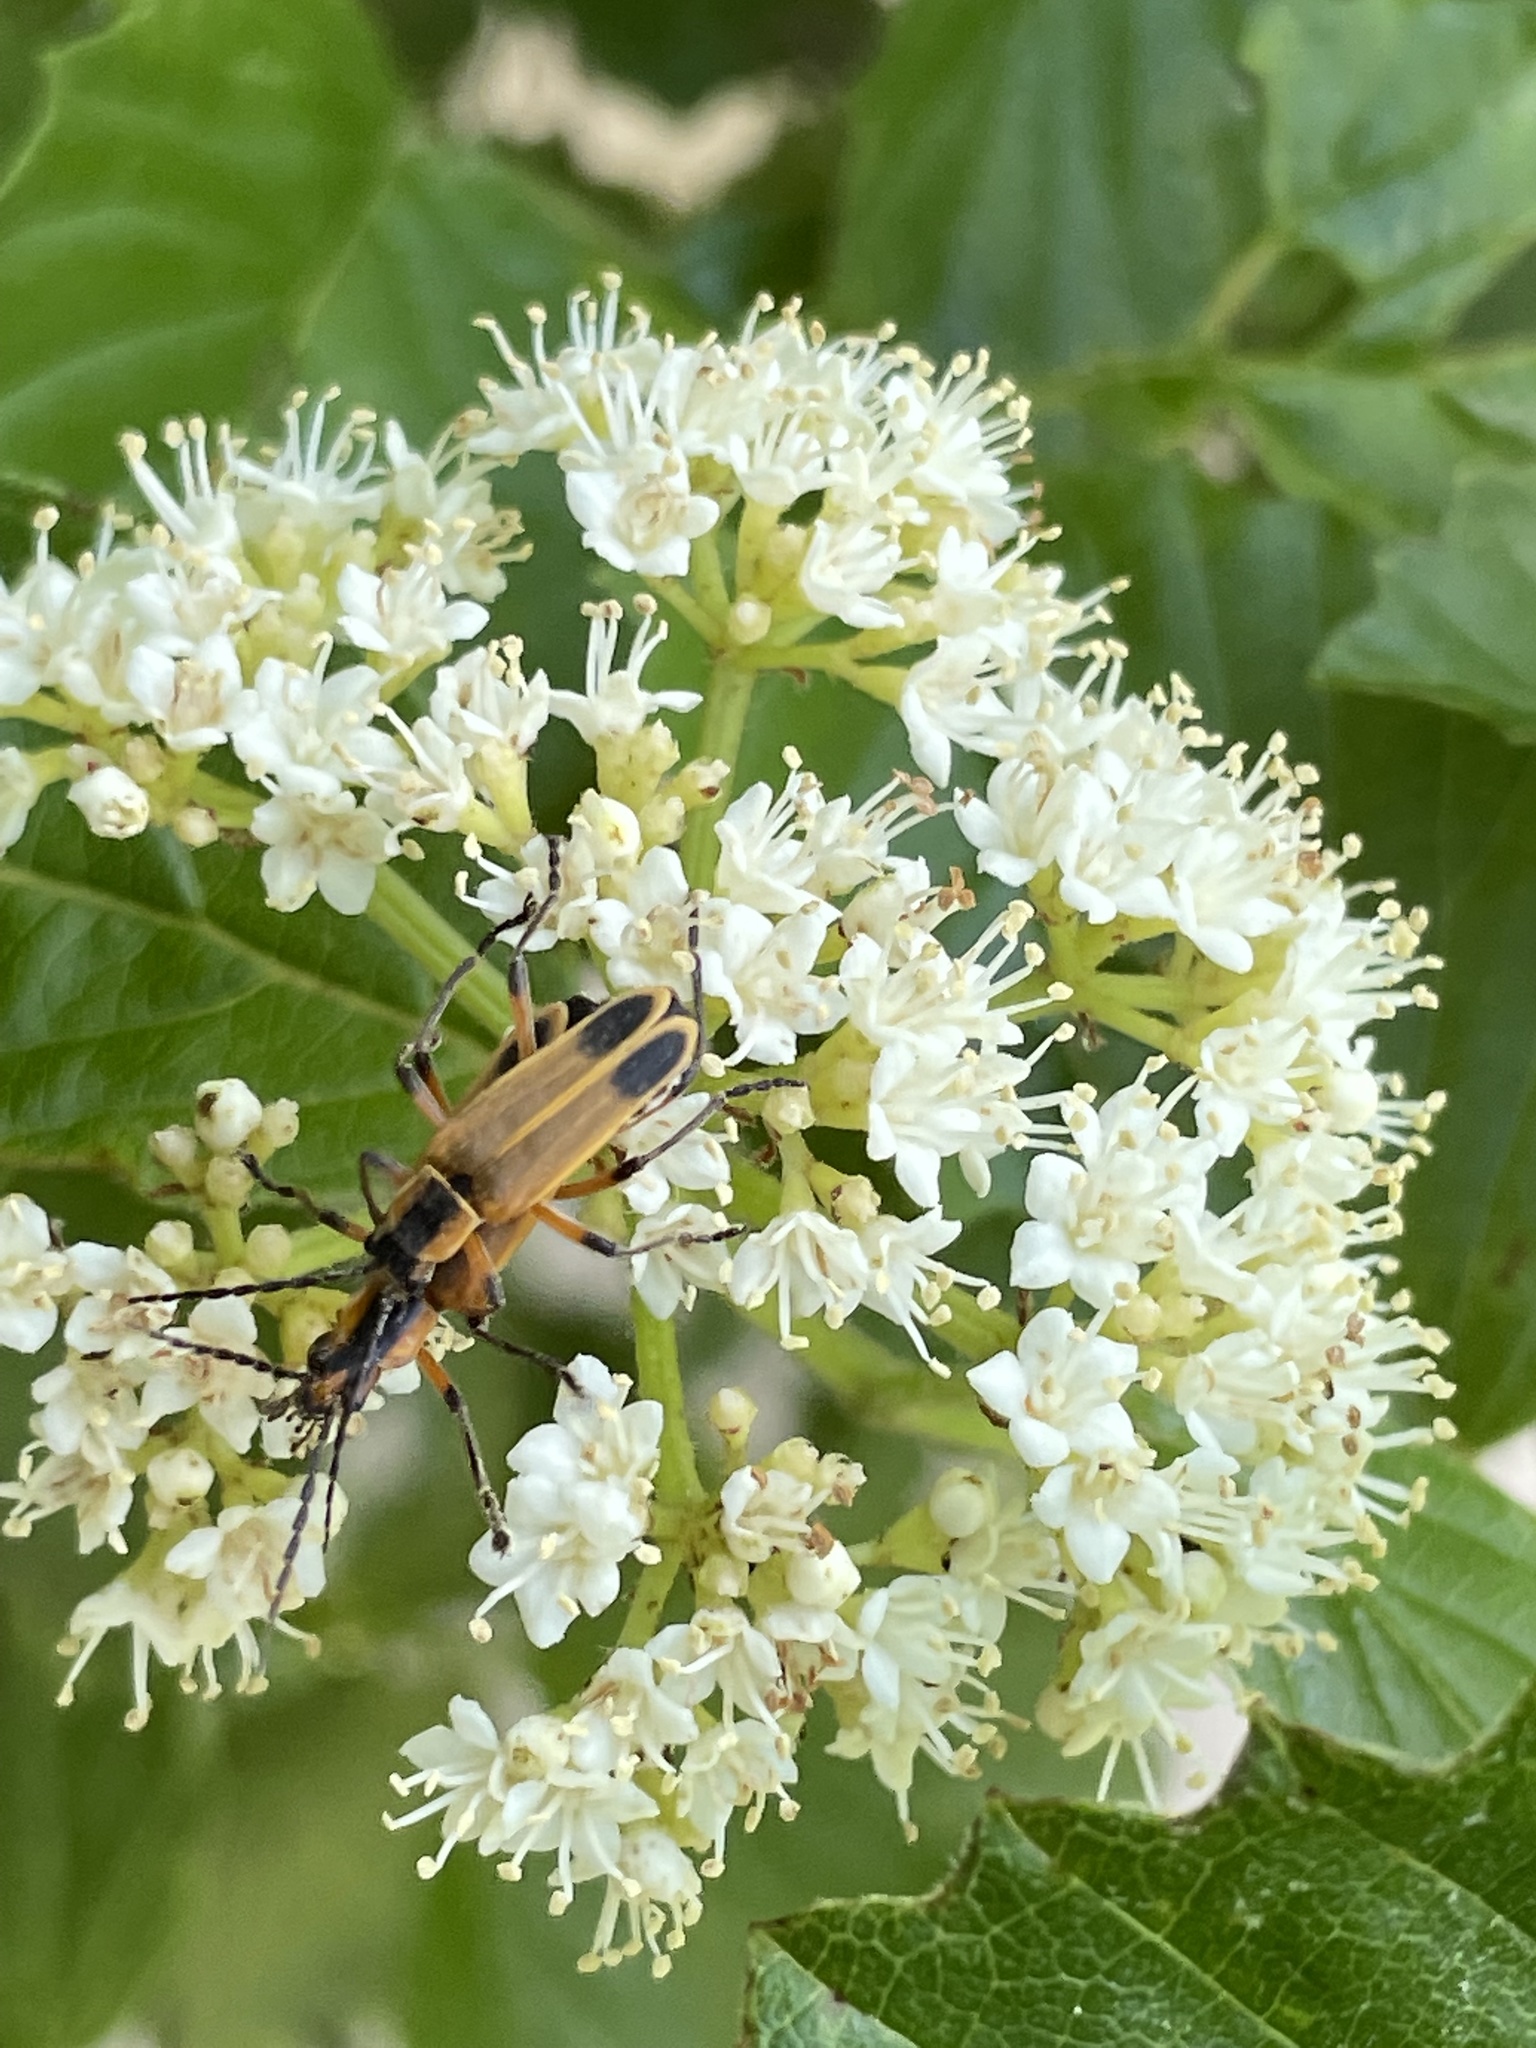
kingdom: Animalia
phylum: Arthropoda
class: Insecta
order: Coleoptera
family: Cantharidae
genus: Chauliognathus
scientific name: Chauliognathus marginatus
